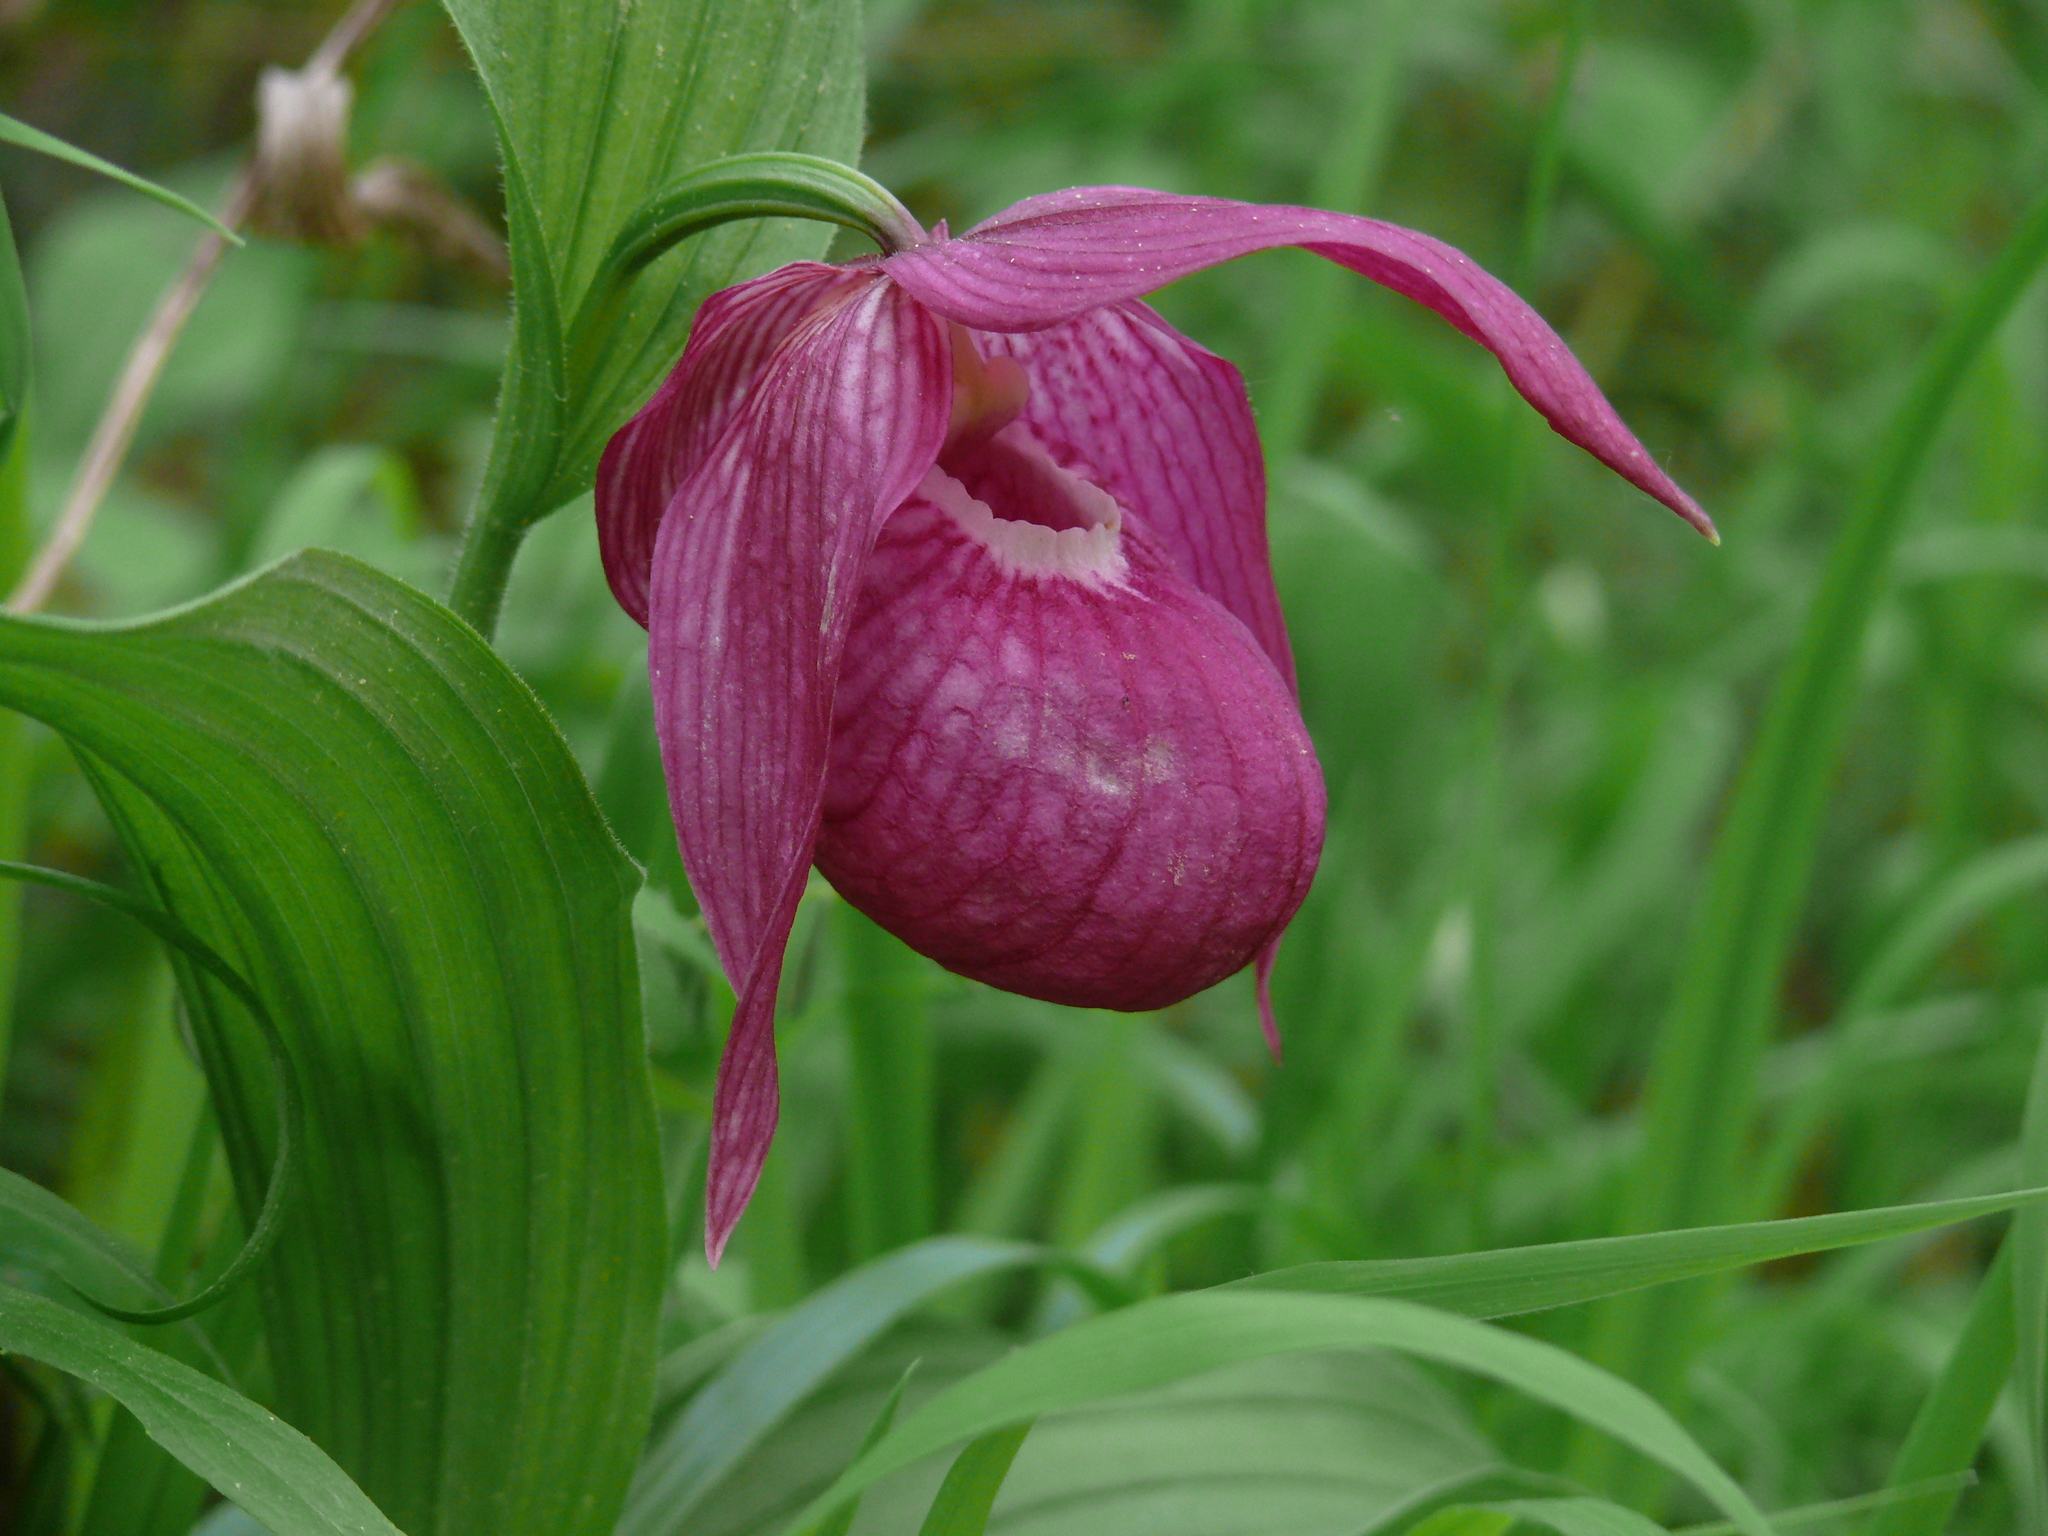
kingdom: Plantae
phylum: Tracheophyta
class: Liliopsida
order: Asparagales
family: Orchidaceae
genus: Cypripedium
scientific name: Cypripedium macranthos
